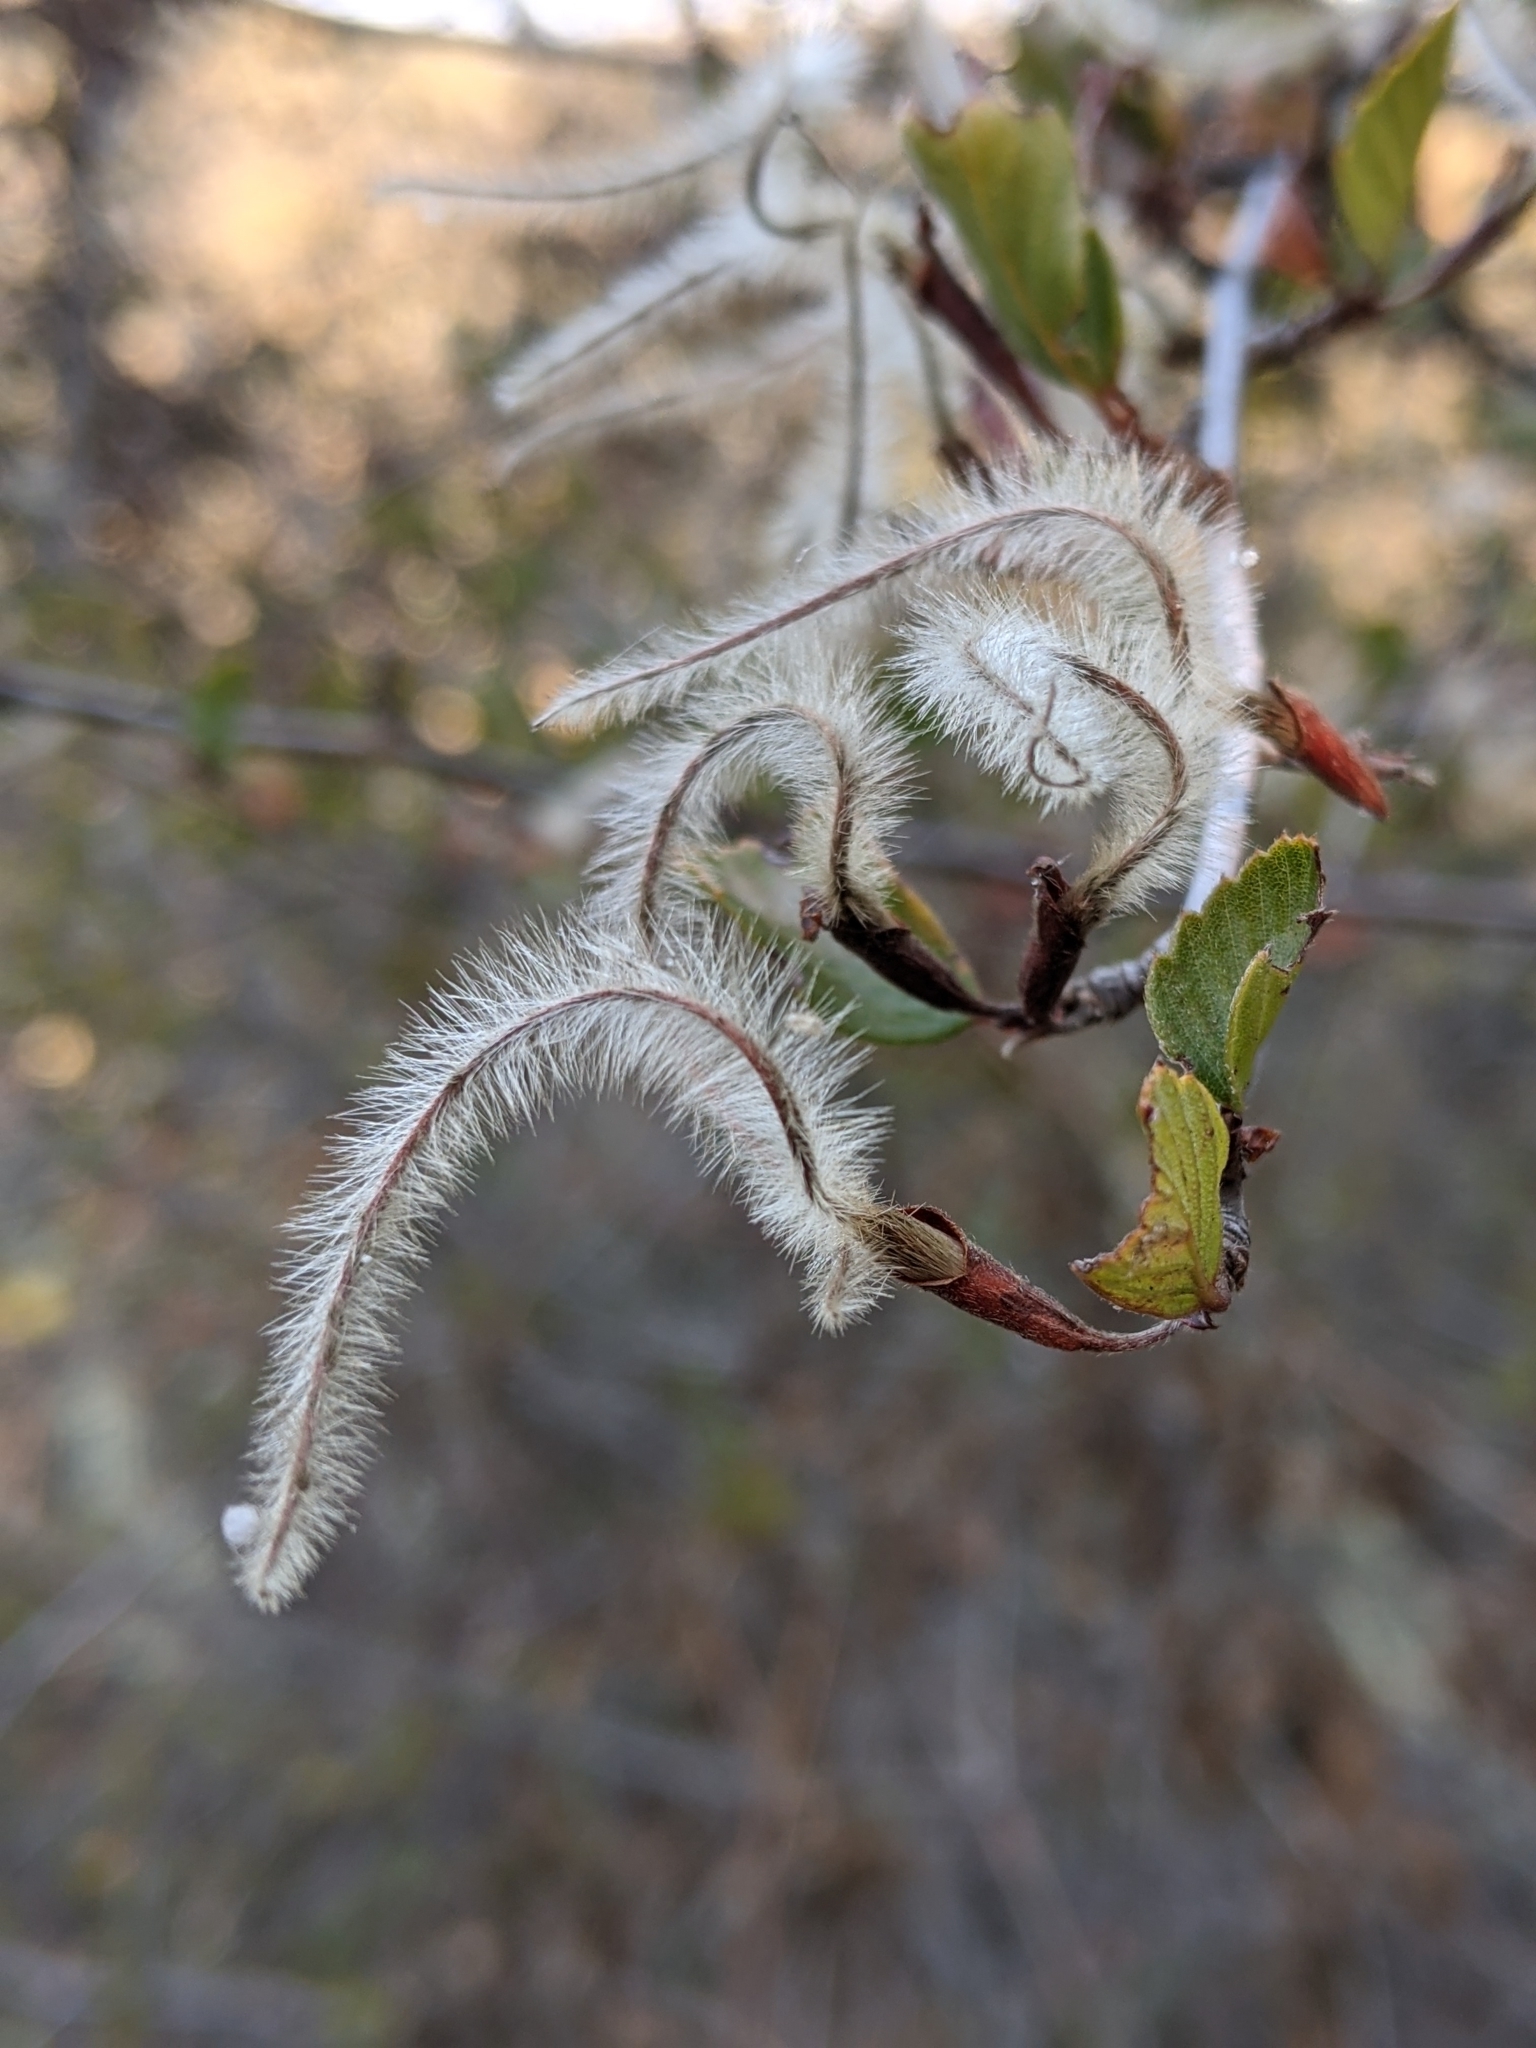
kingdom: Plantae
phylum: Tracheophyta
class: Magnoliopsida
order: Rosales
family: Rosaceae
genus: Cercocarpus
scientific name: Cercocarpus betuloides
